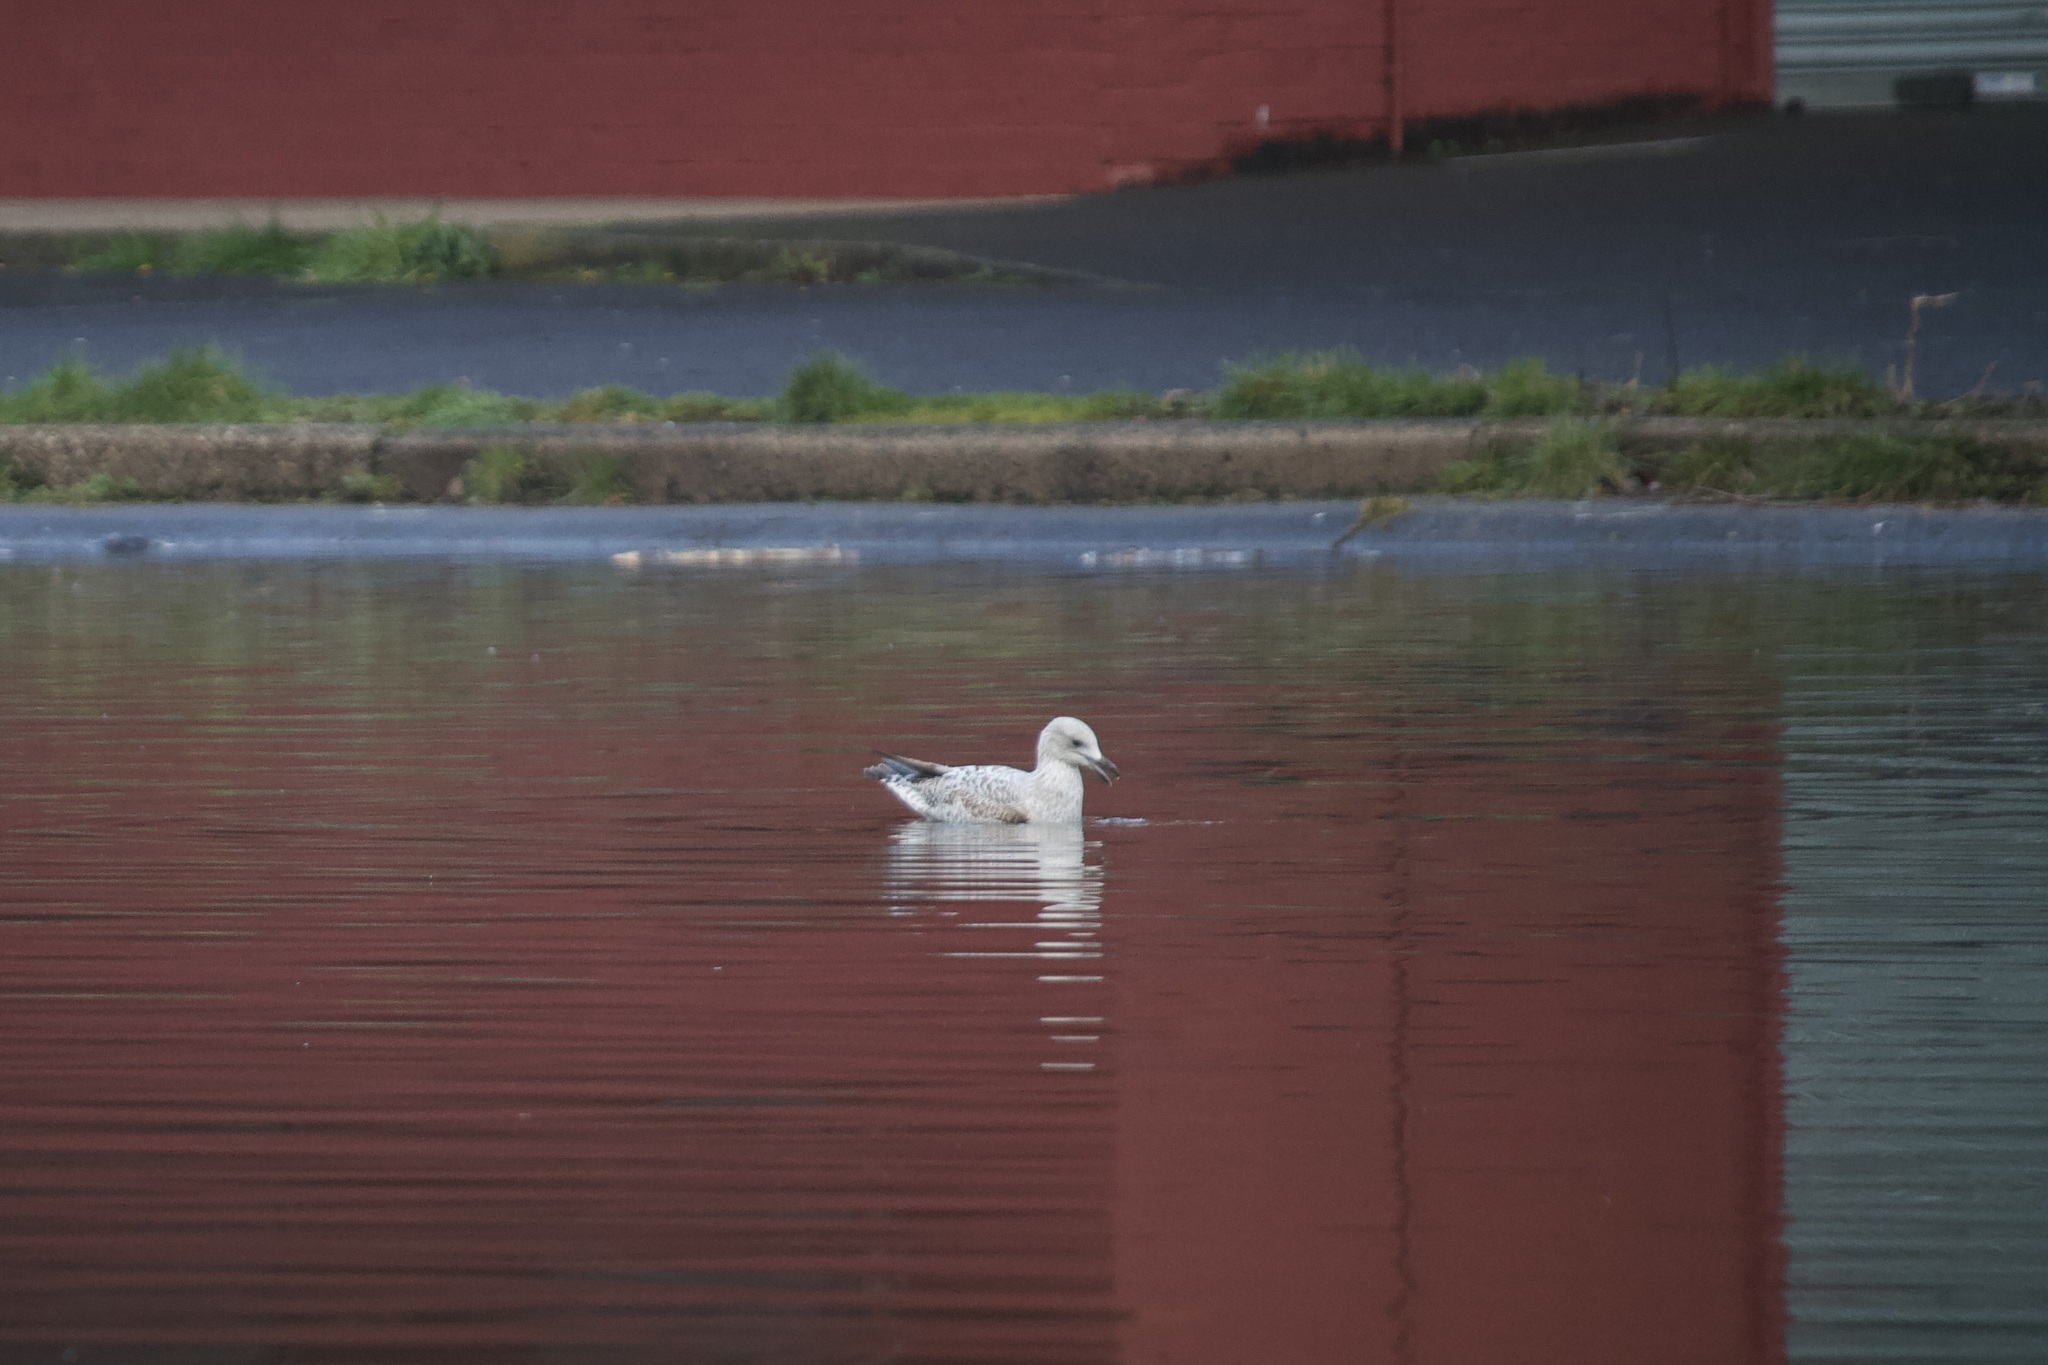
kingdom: Animalia
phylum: Chordata
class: Aves
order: Charadriiformes
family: Laridae
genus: Larus
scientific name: Larus argentatus
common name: Herring gull
